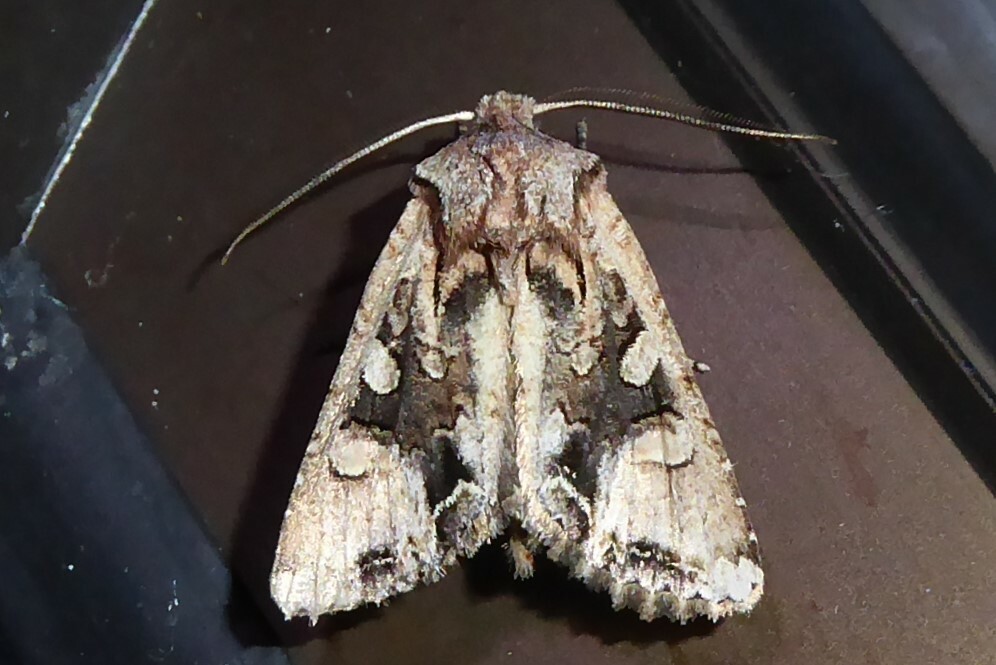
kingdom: Animalia
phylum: Arthropoda
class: Insecta
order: Lepidoptera
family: Noctuidae
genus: Ichneutica
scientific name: Ichneutica
